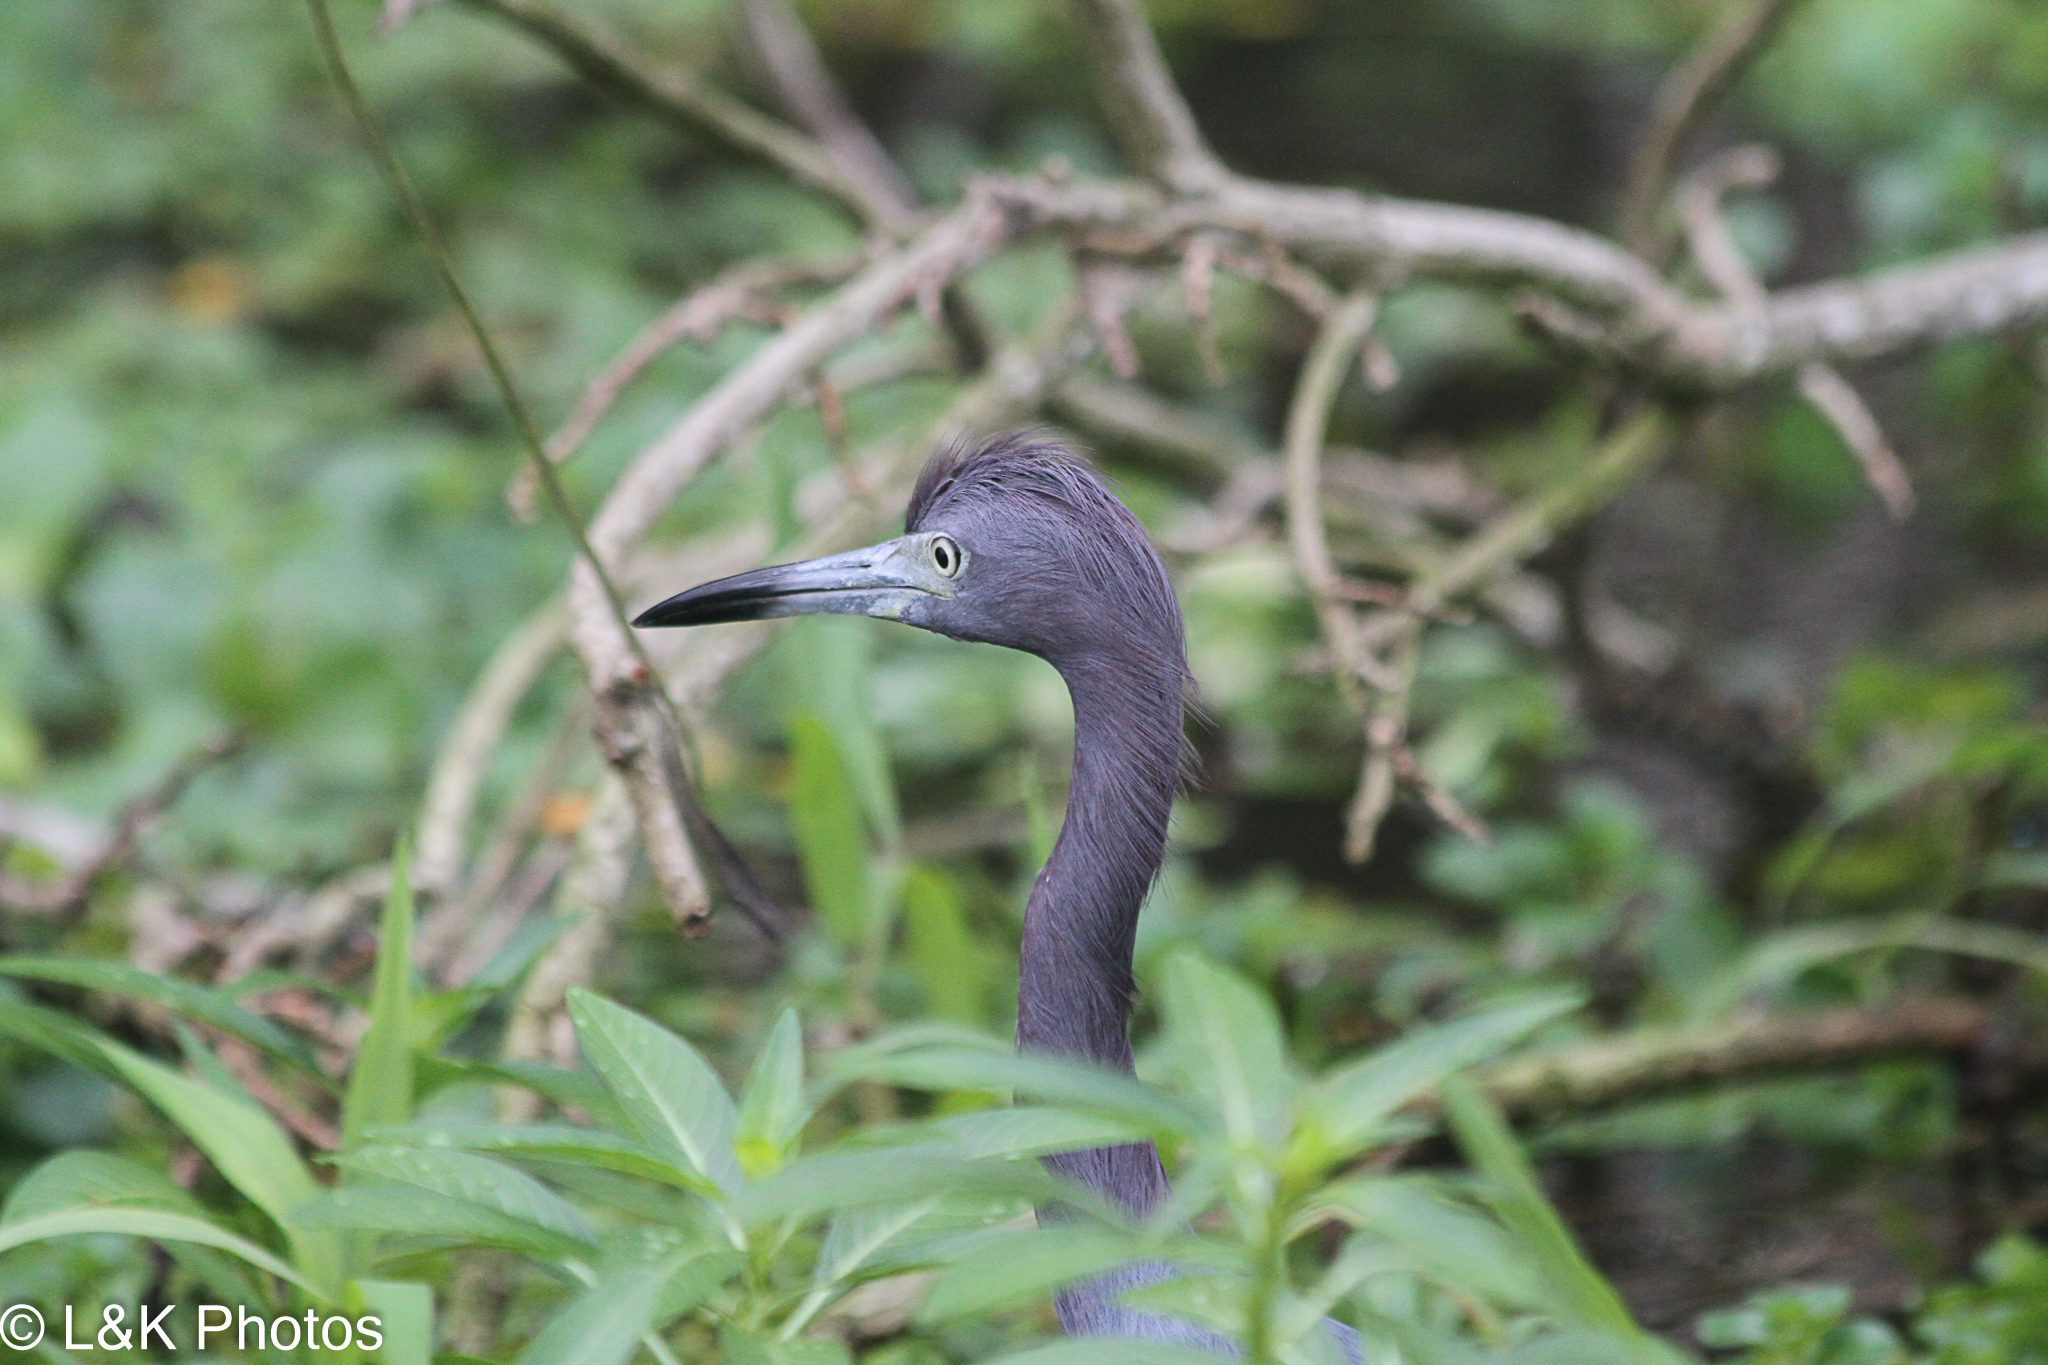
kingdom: Animalia
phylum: Chordata
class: Aves
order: Pelecaniformes
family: Ardeidae
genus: Egretta
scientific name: Egretta caerulea
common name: Little blue heron
